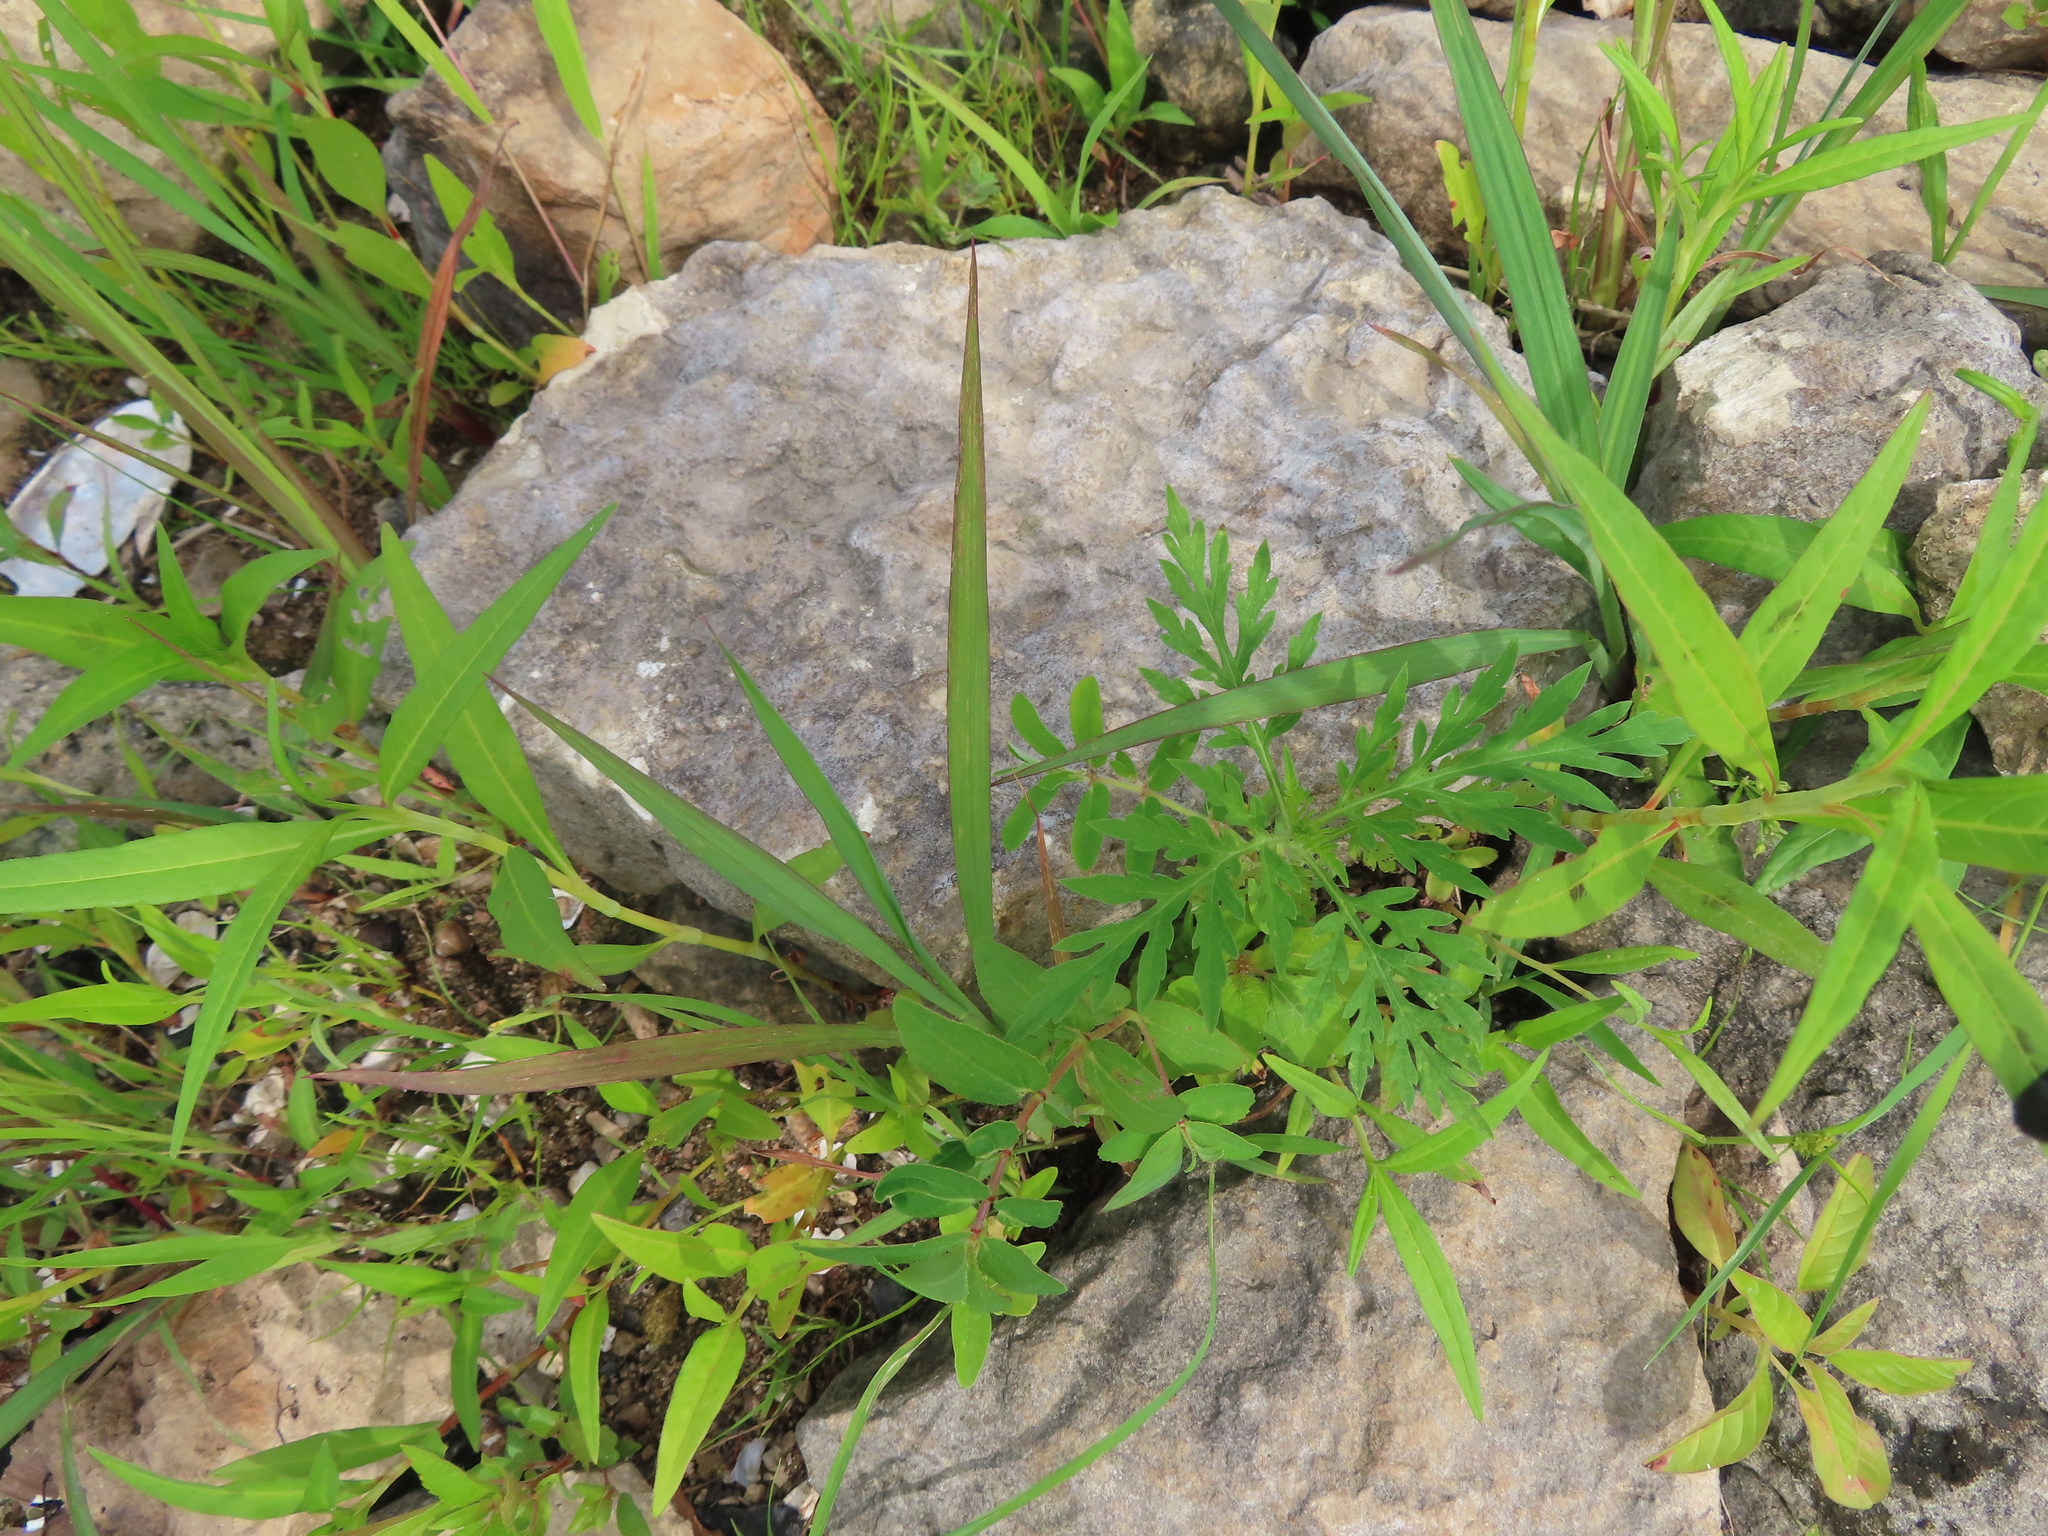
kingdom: Plantae
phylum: Tracheophyta
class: Magnoliopsida
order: Asterales
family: Asteraceae
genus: Ambrosia
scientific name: Ambrosia artemisiifolia
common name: Annual ragweed
